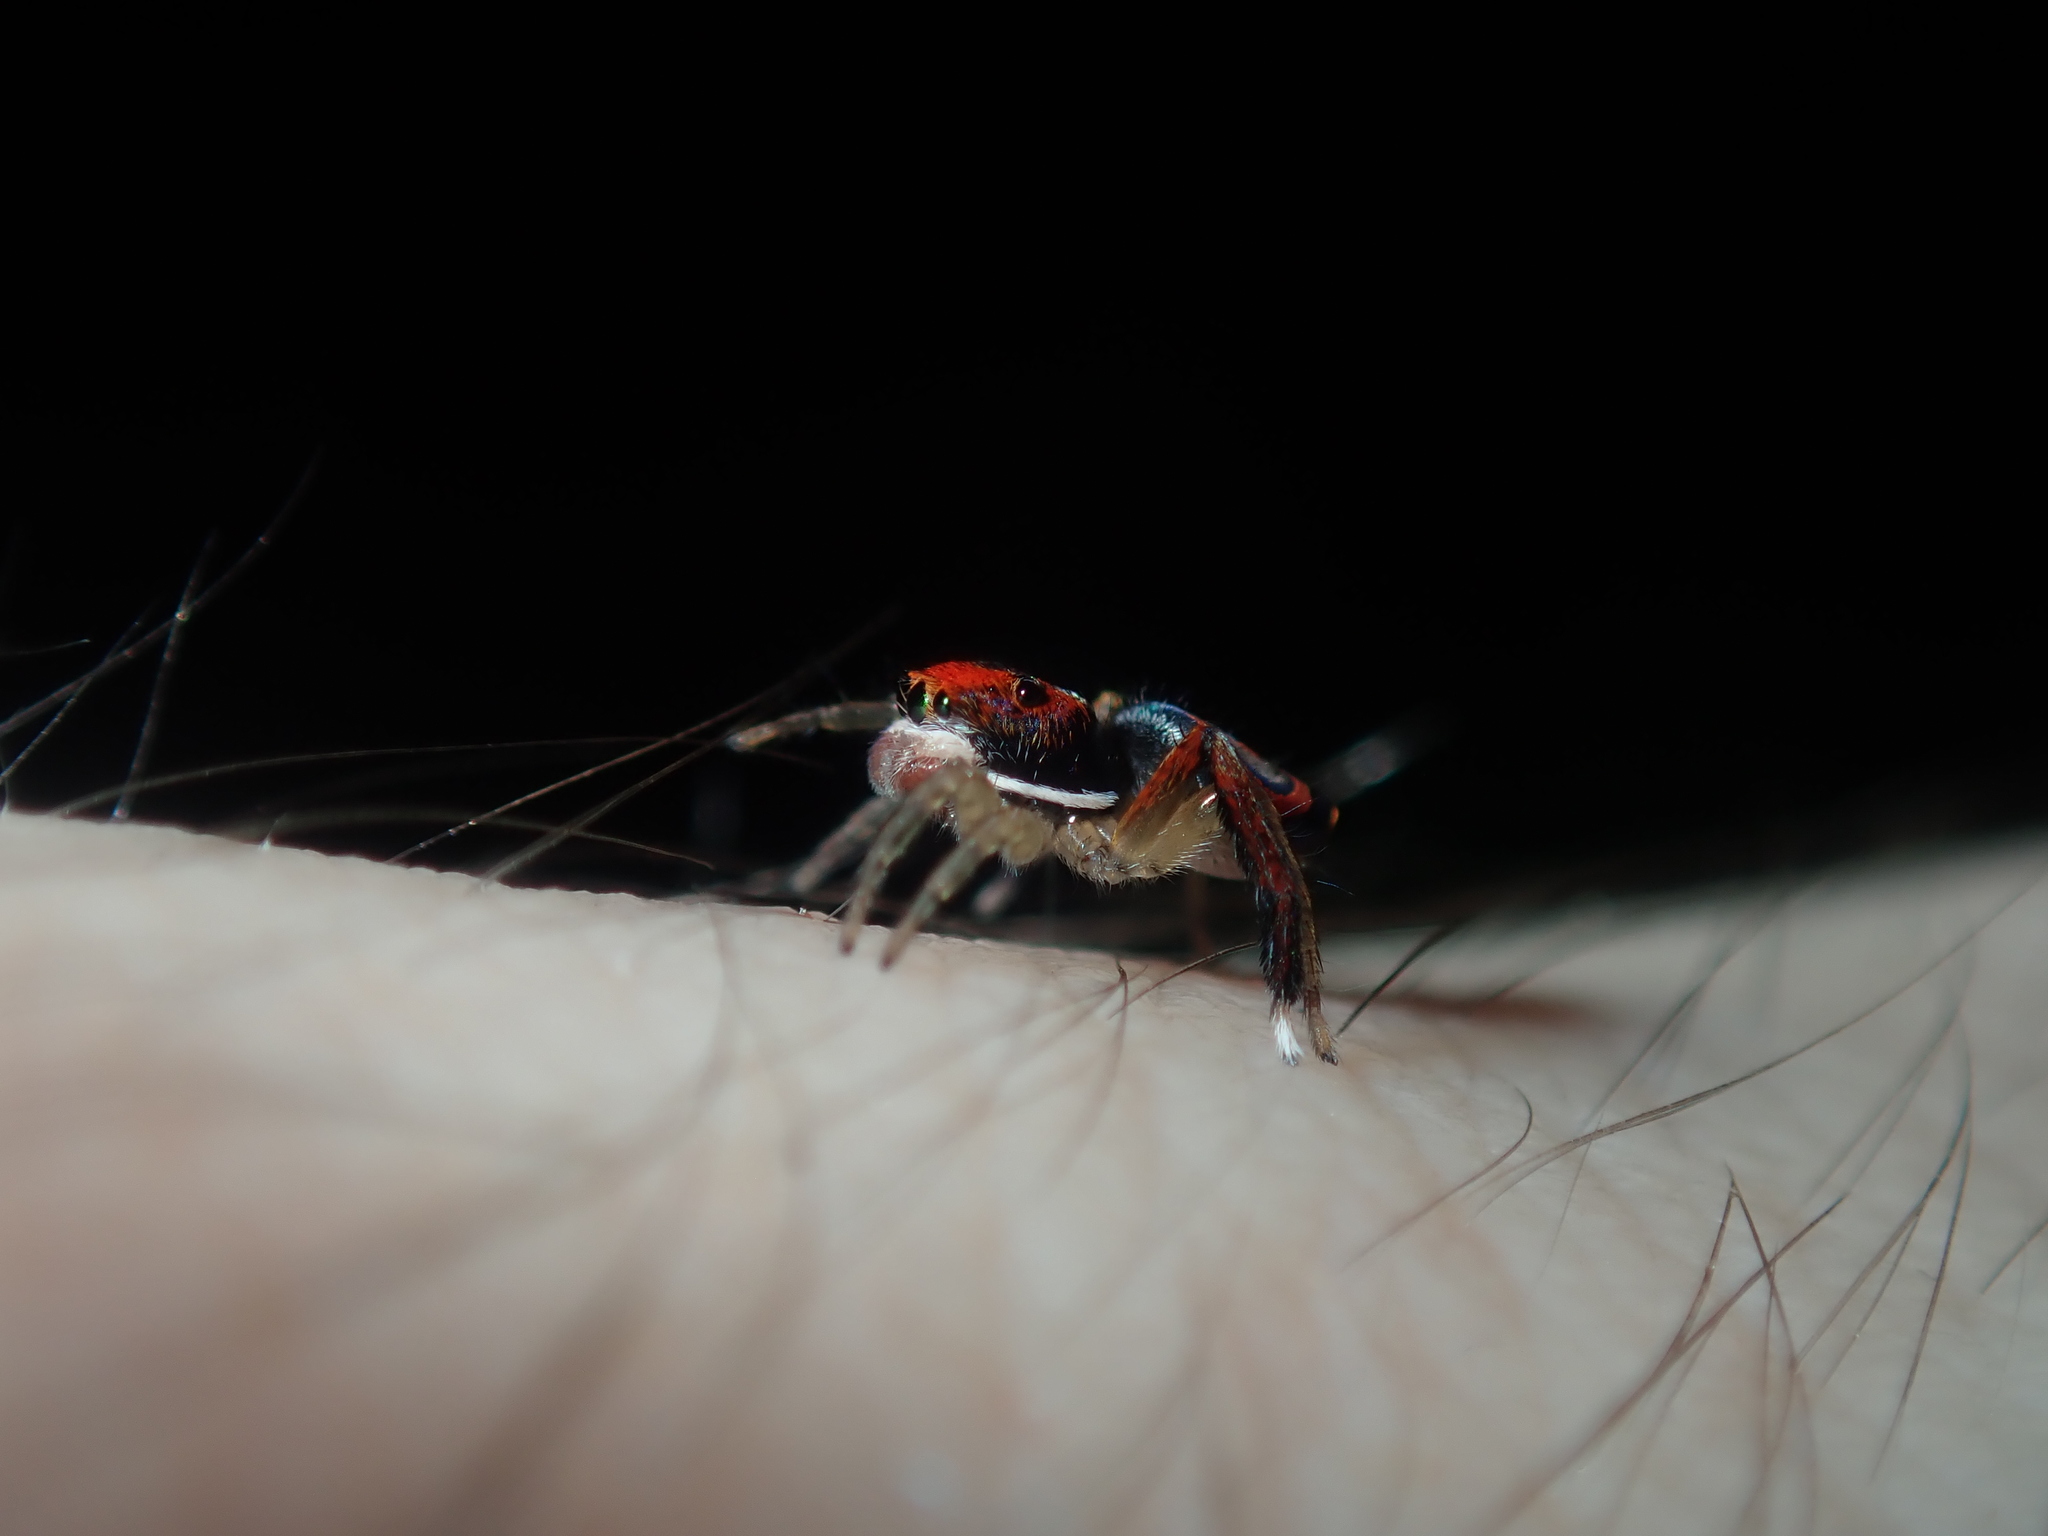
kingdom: Animalia
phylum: Arthropoda
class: Arachnida
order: Araneae
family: Salticidae
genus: Maratus
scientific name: Maratus splendens
